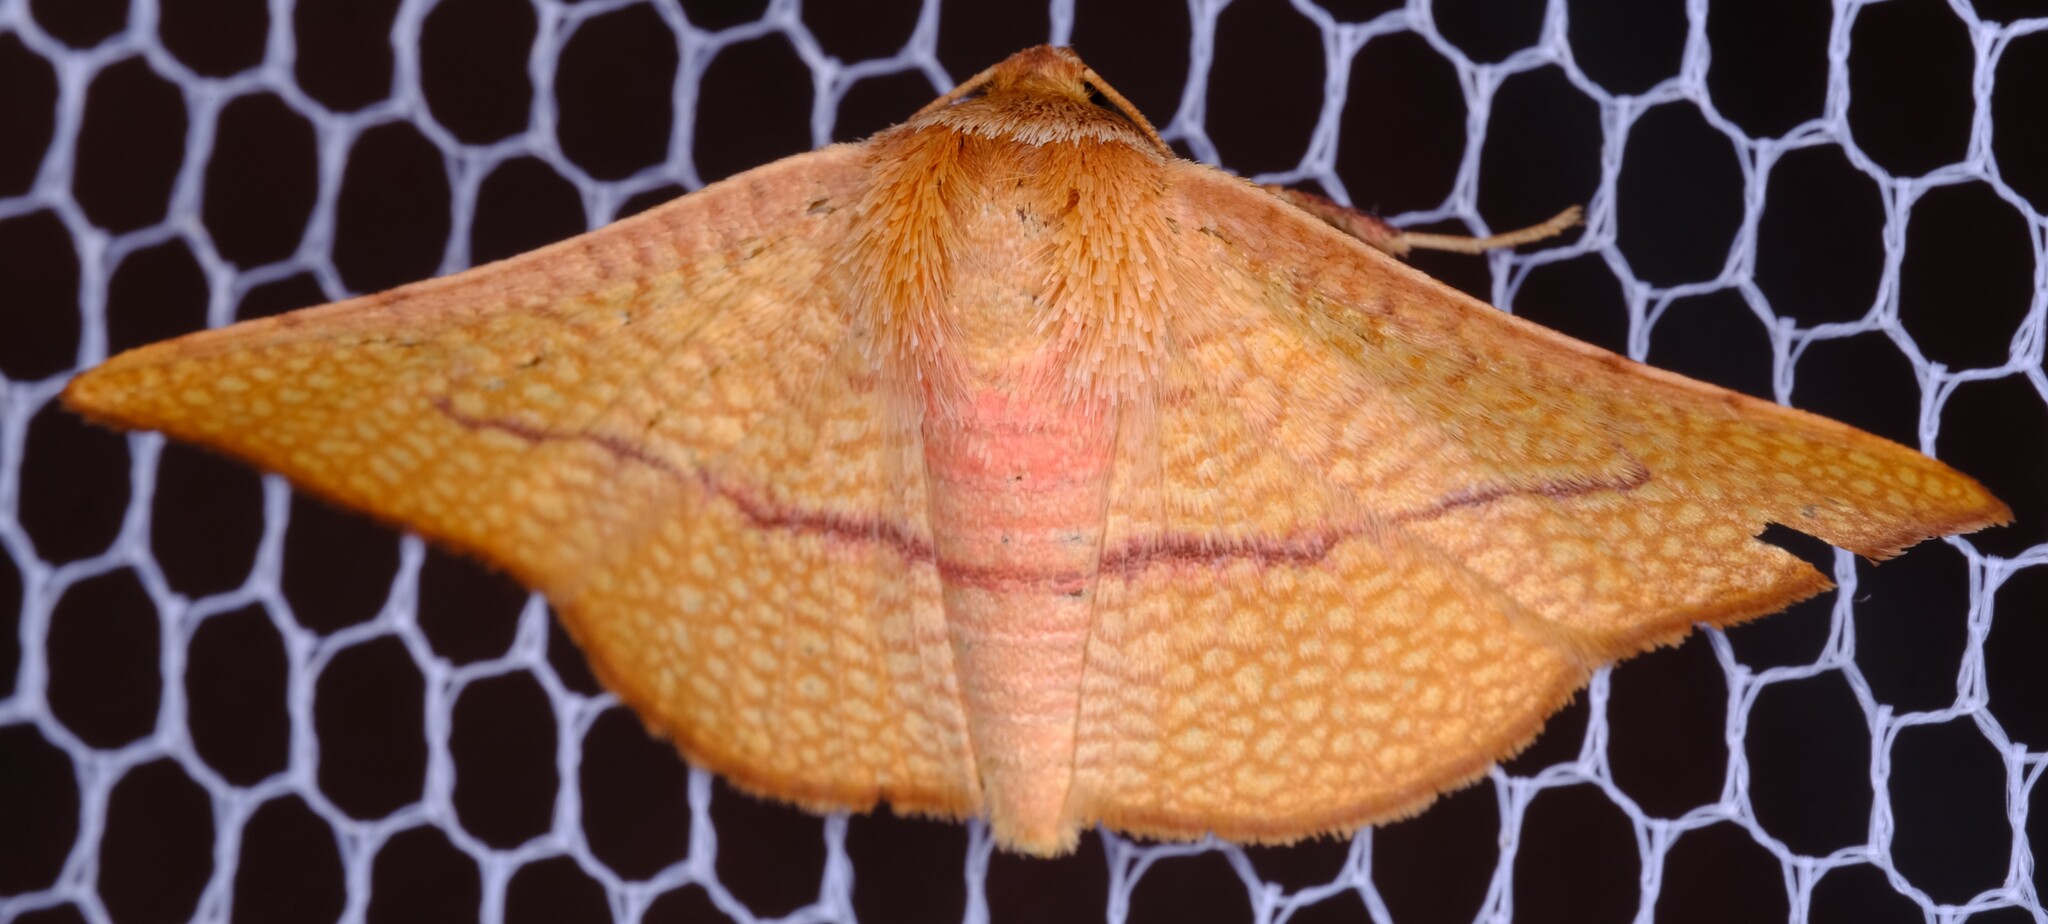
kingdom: Animalia
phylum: Arthropoda
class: Insecta
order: Lepidoptera
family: Thyrididae
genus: Aglaopus
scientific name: Aglaopus pyrrhata
